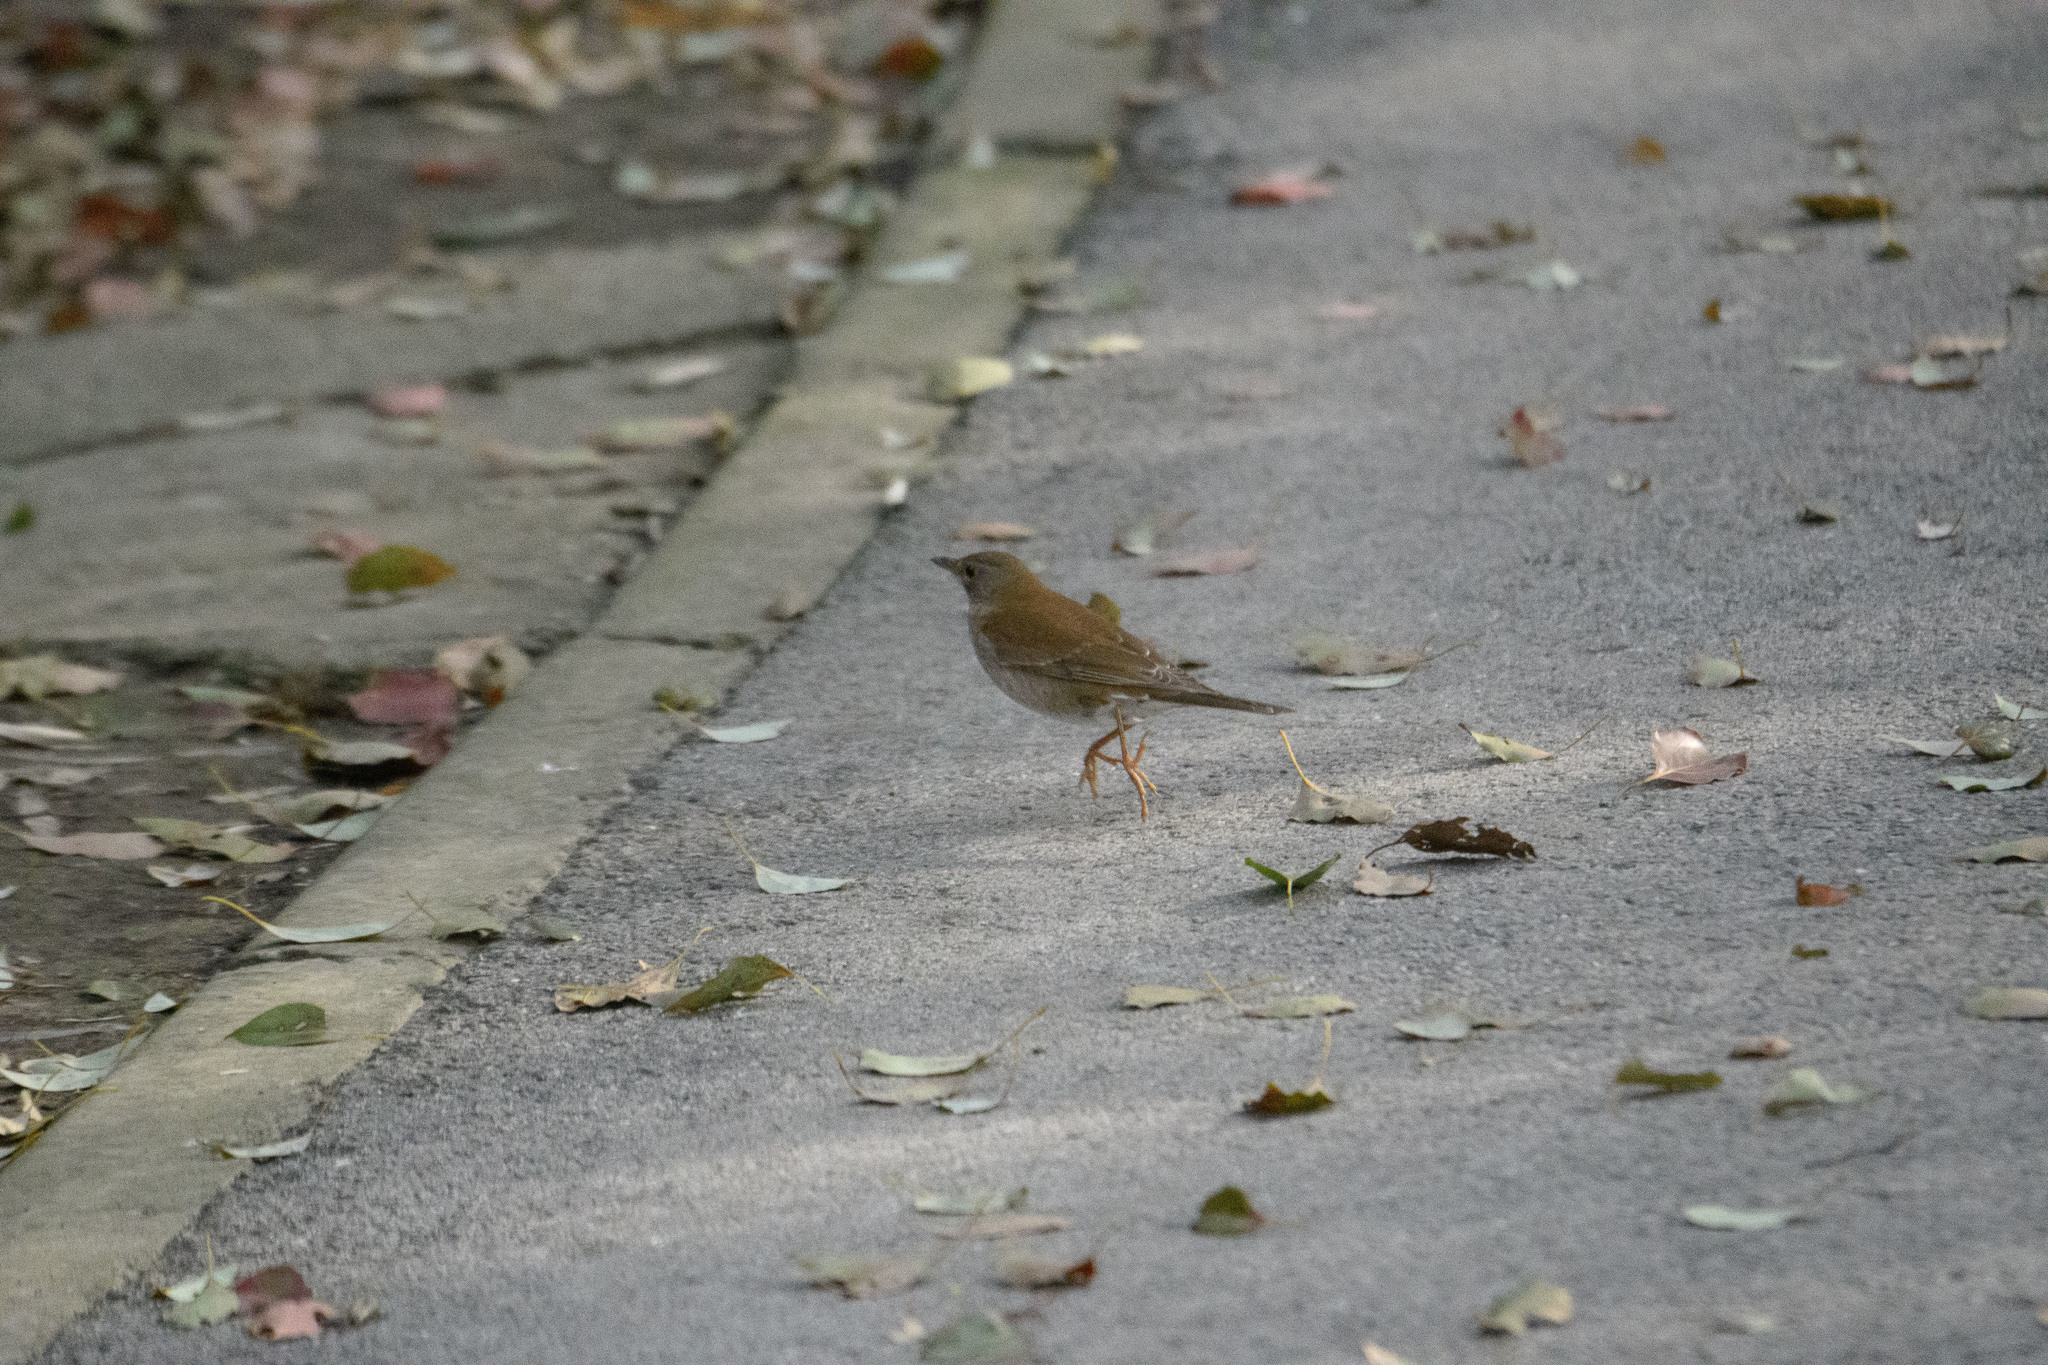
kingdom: Animalia
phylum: Chordata
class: Aves
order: Passeriformes
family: Turdidae
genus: Turdus
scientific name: Turdus pallidus
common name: Pale thrush
